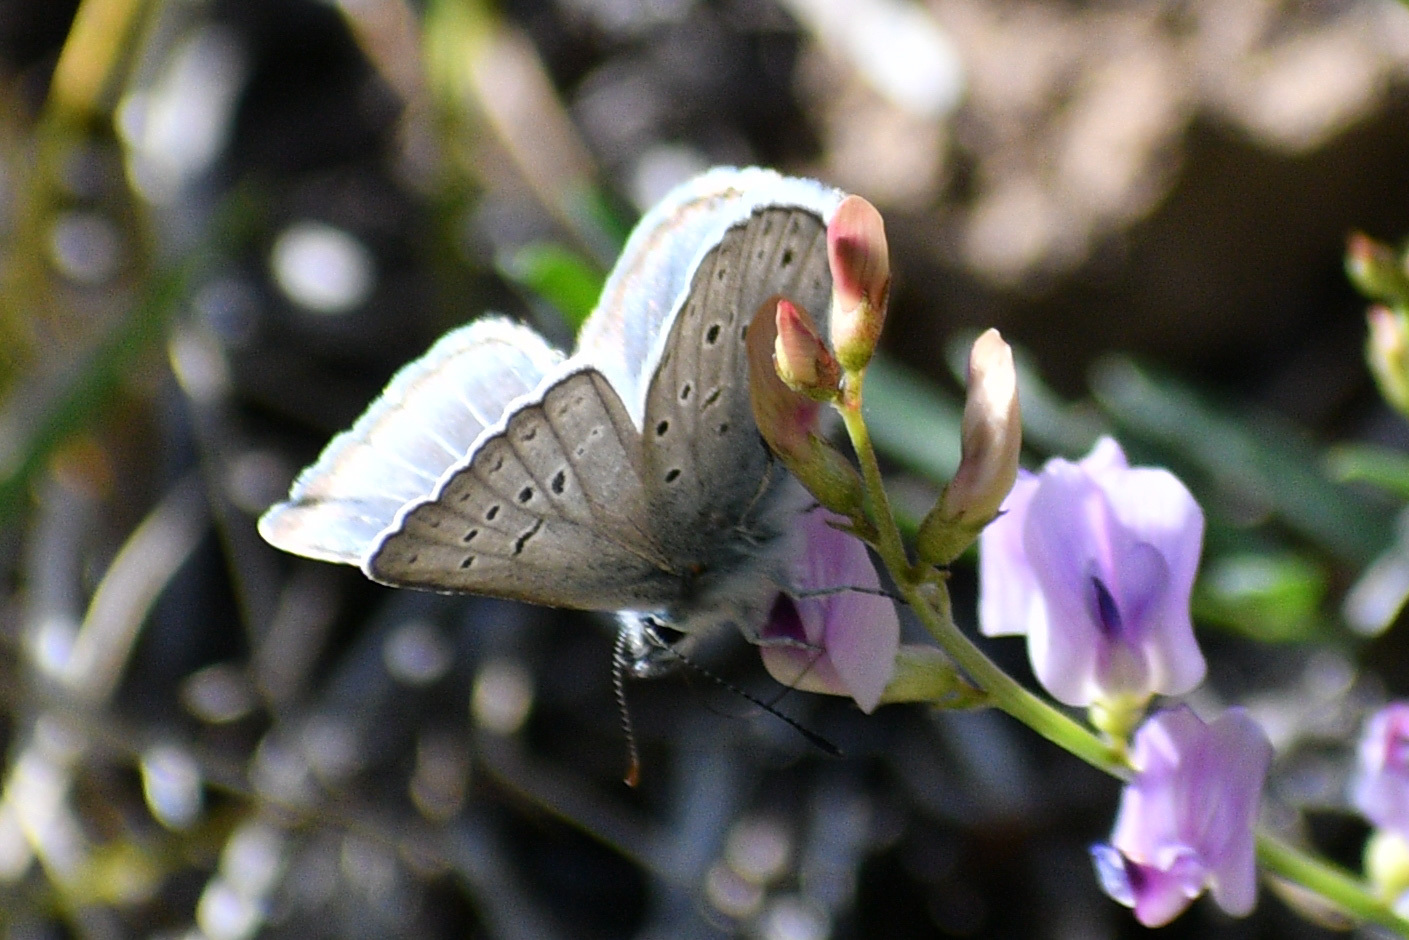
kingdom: Animalia
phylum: Arthropoda
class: Insecta
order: Lepidoptera
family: Lycaenidae
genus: Icaricia
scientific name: Icaricia saepiolus
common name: Greenish blue
